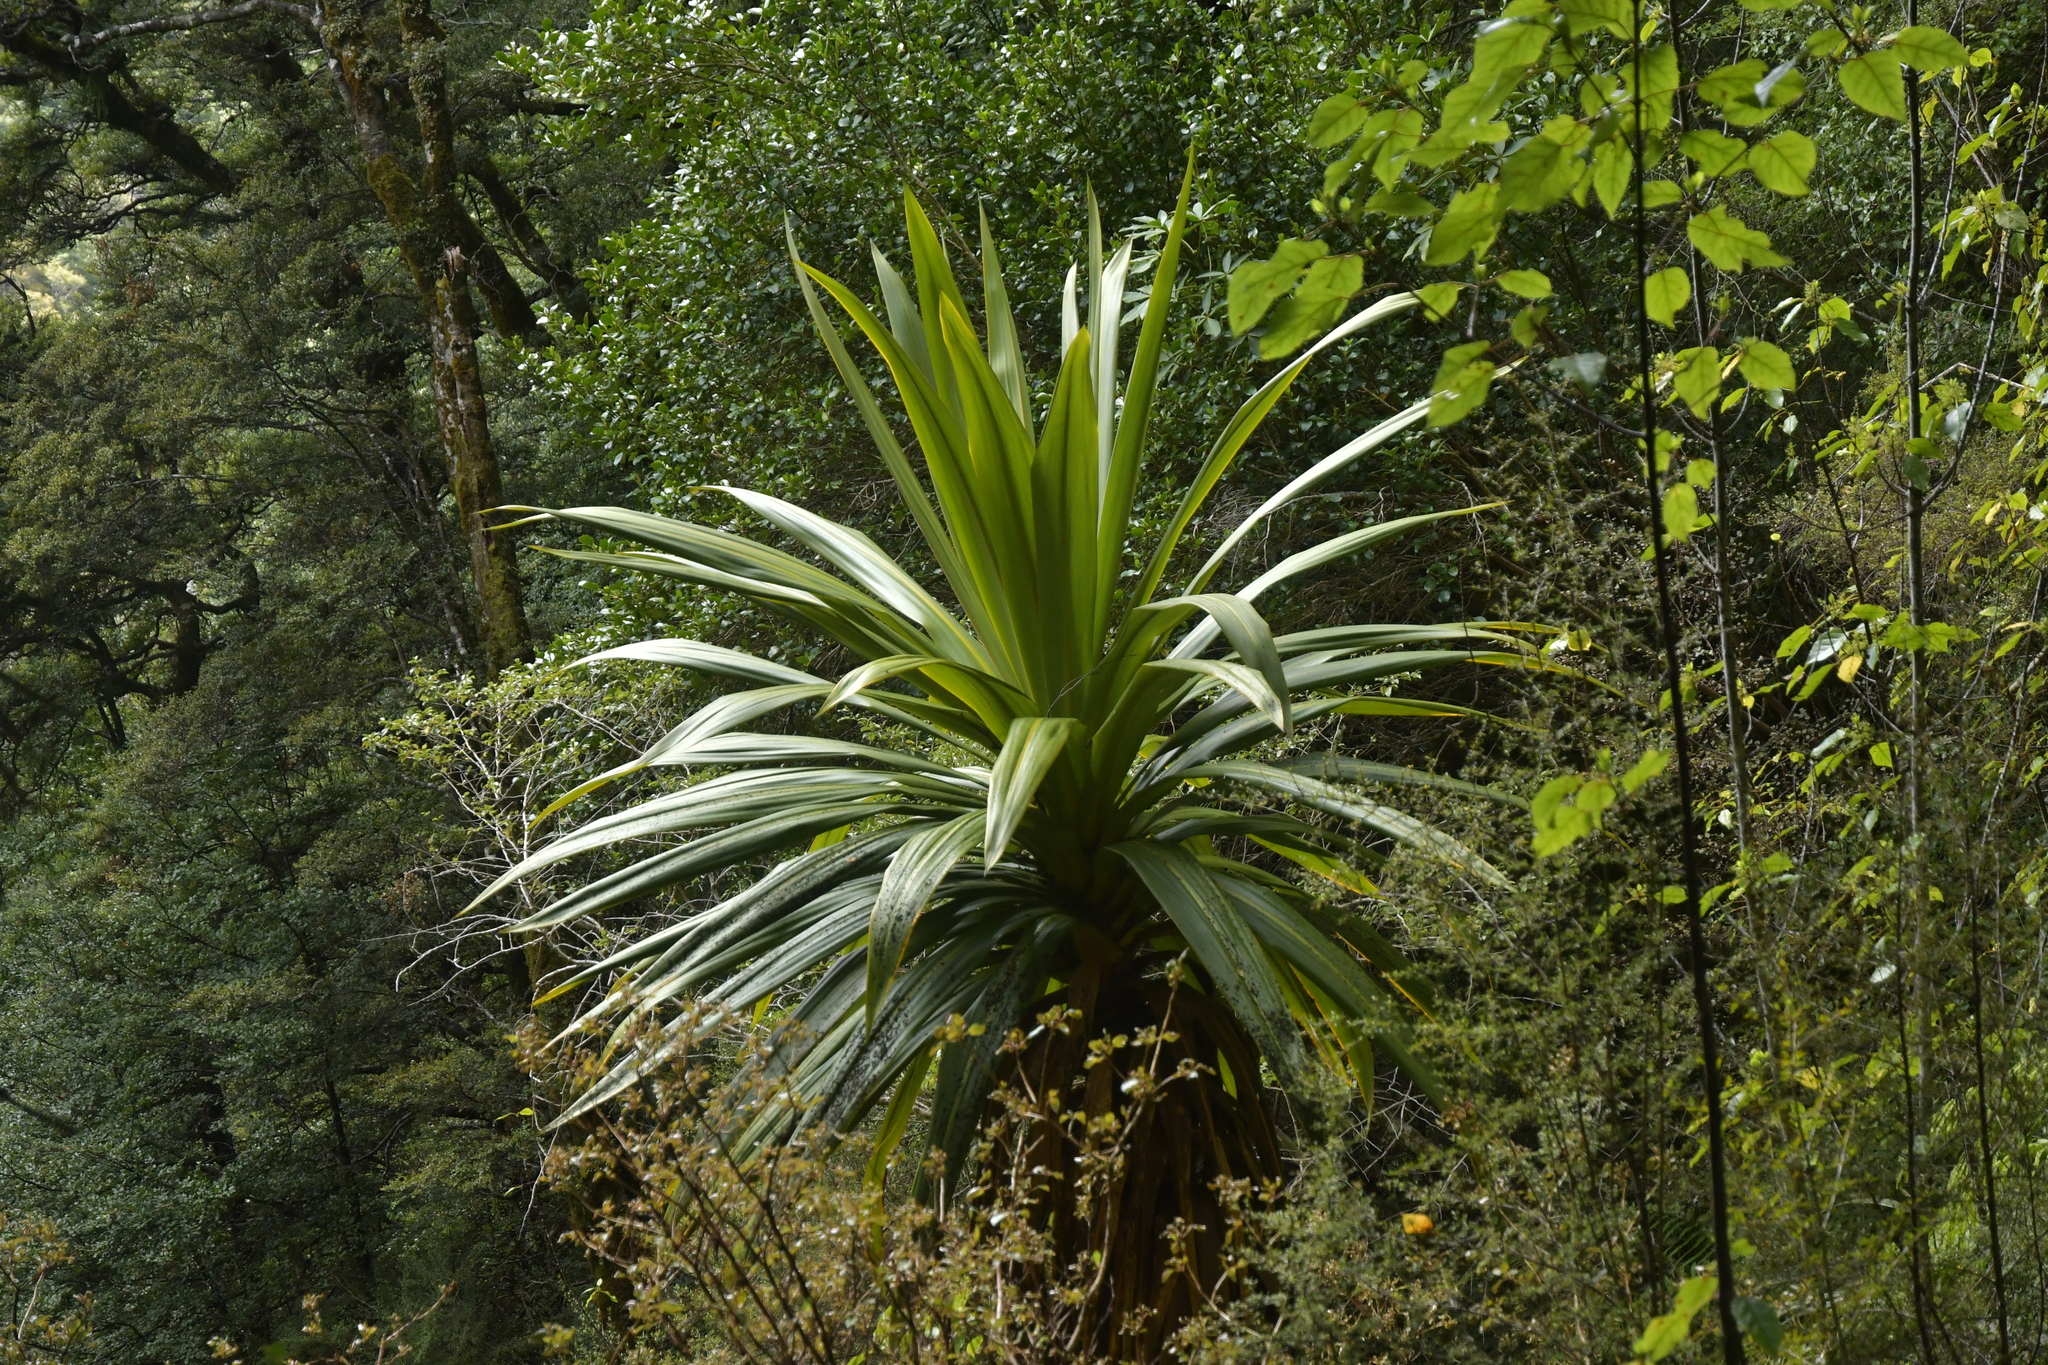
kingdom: Plantae
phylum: Tracheophyta
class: Liliopsida
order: Asparagales
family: Asparagaceae
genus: Cordyline
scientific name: Cordyline indivisa
